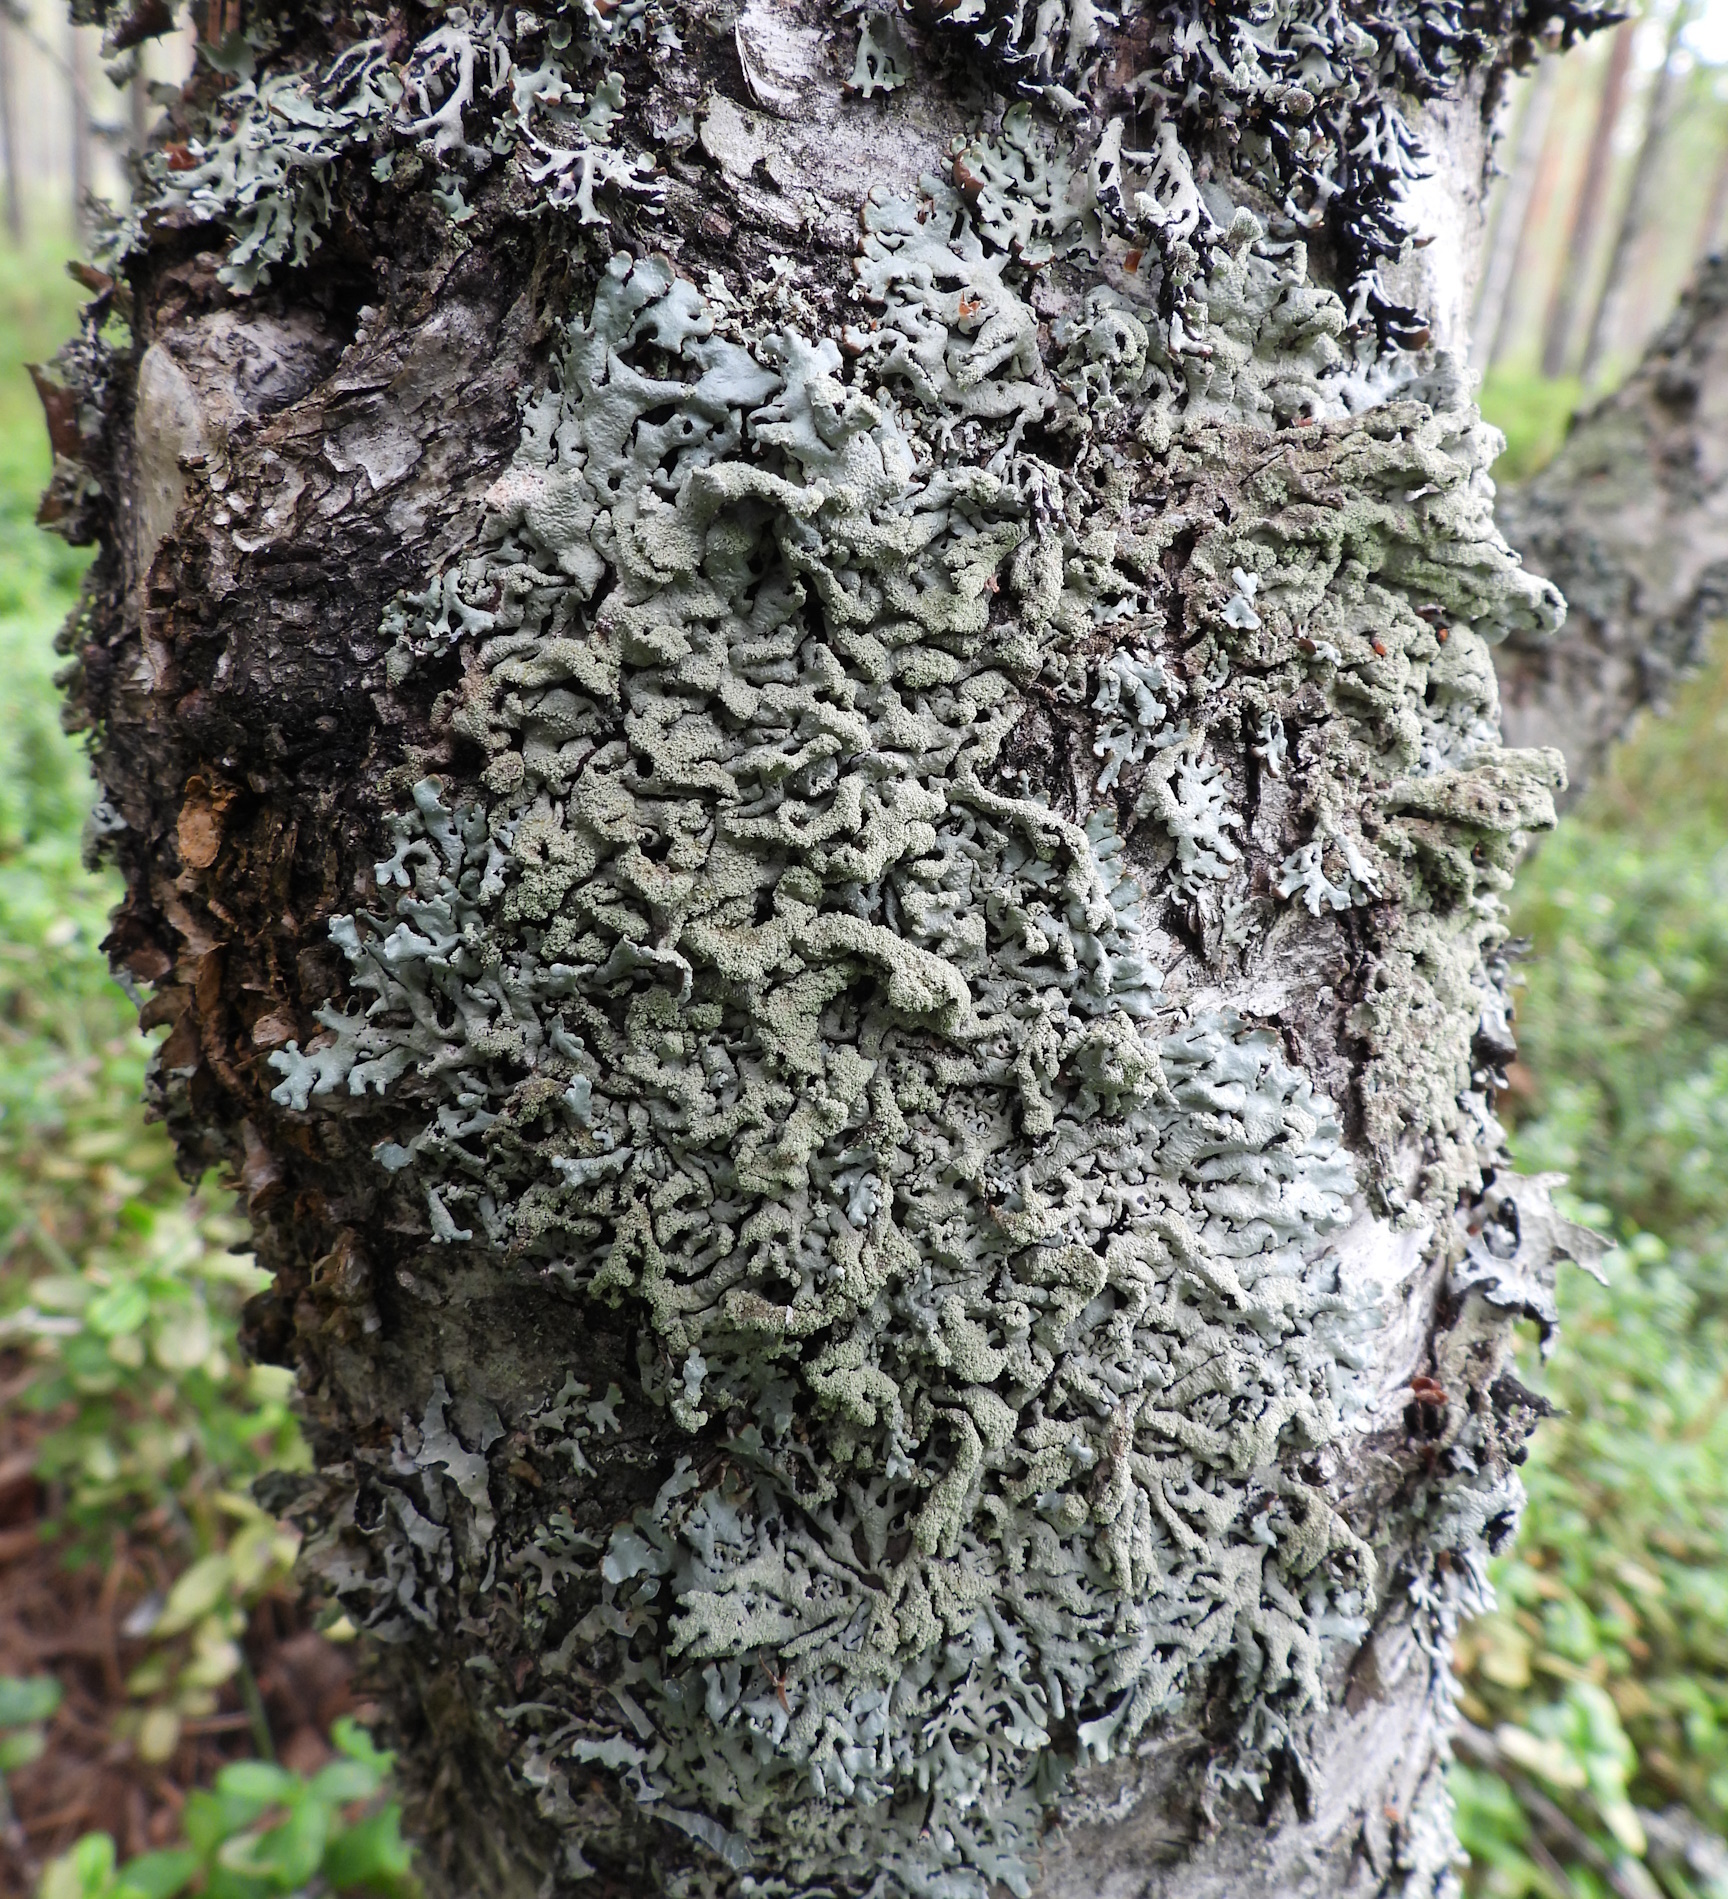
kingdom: Fungi
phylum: Ascomycota
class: Lecanoromycetes
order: Lecanorales
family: Parmeliaceae
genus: Hypogymnia
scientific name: Hypogymnia farinacea
